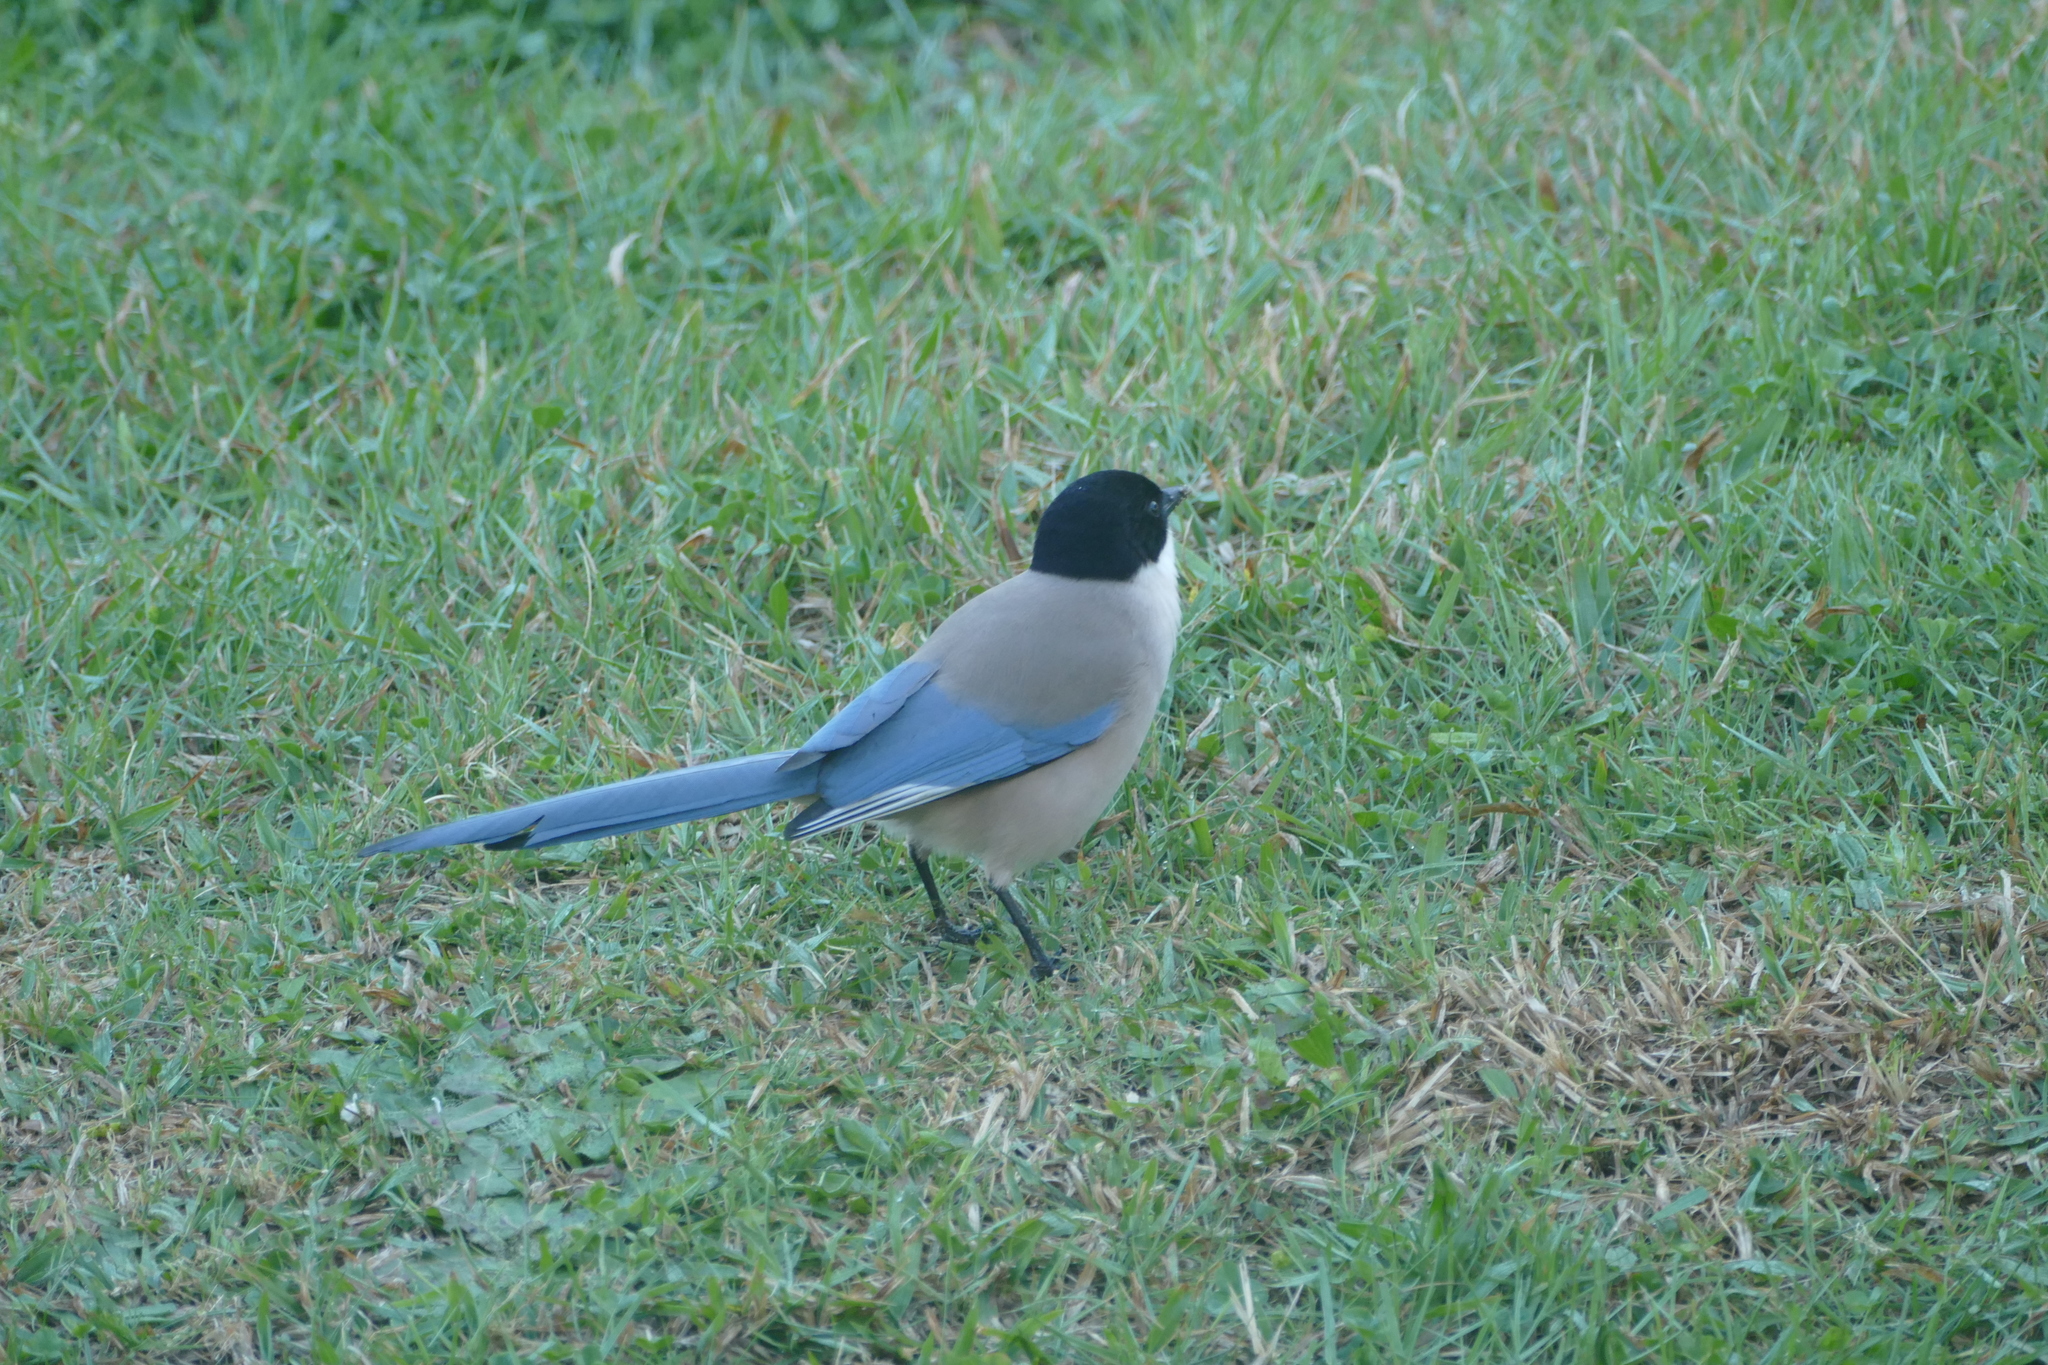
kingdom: Animalia
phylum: Chordata
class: Aves
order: Passeriformes
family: Corvidae
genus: Cyanopica
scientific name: Cyanopica cooki
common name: Iberian magpie
